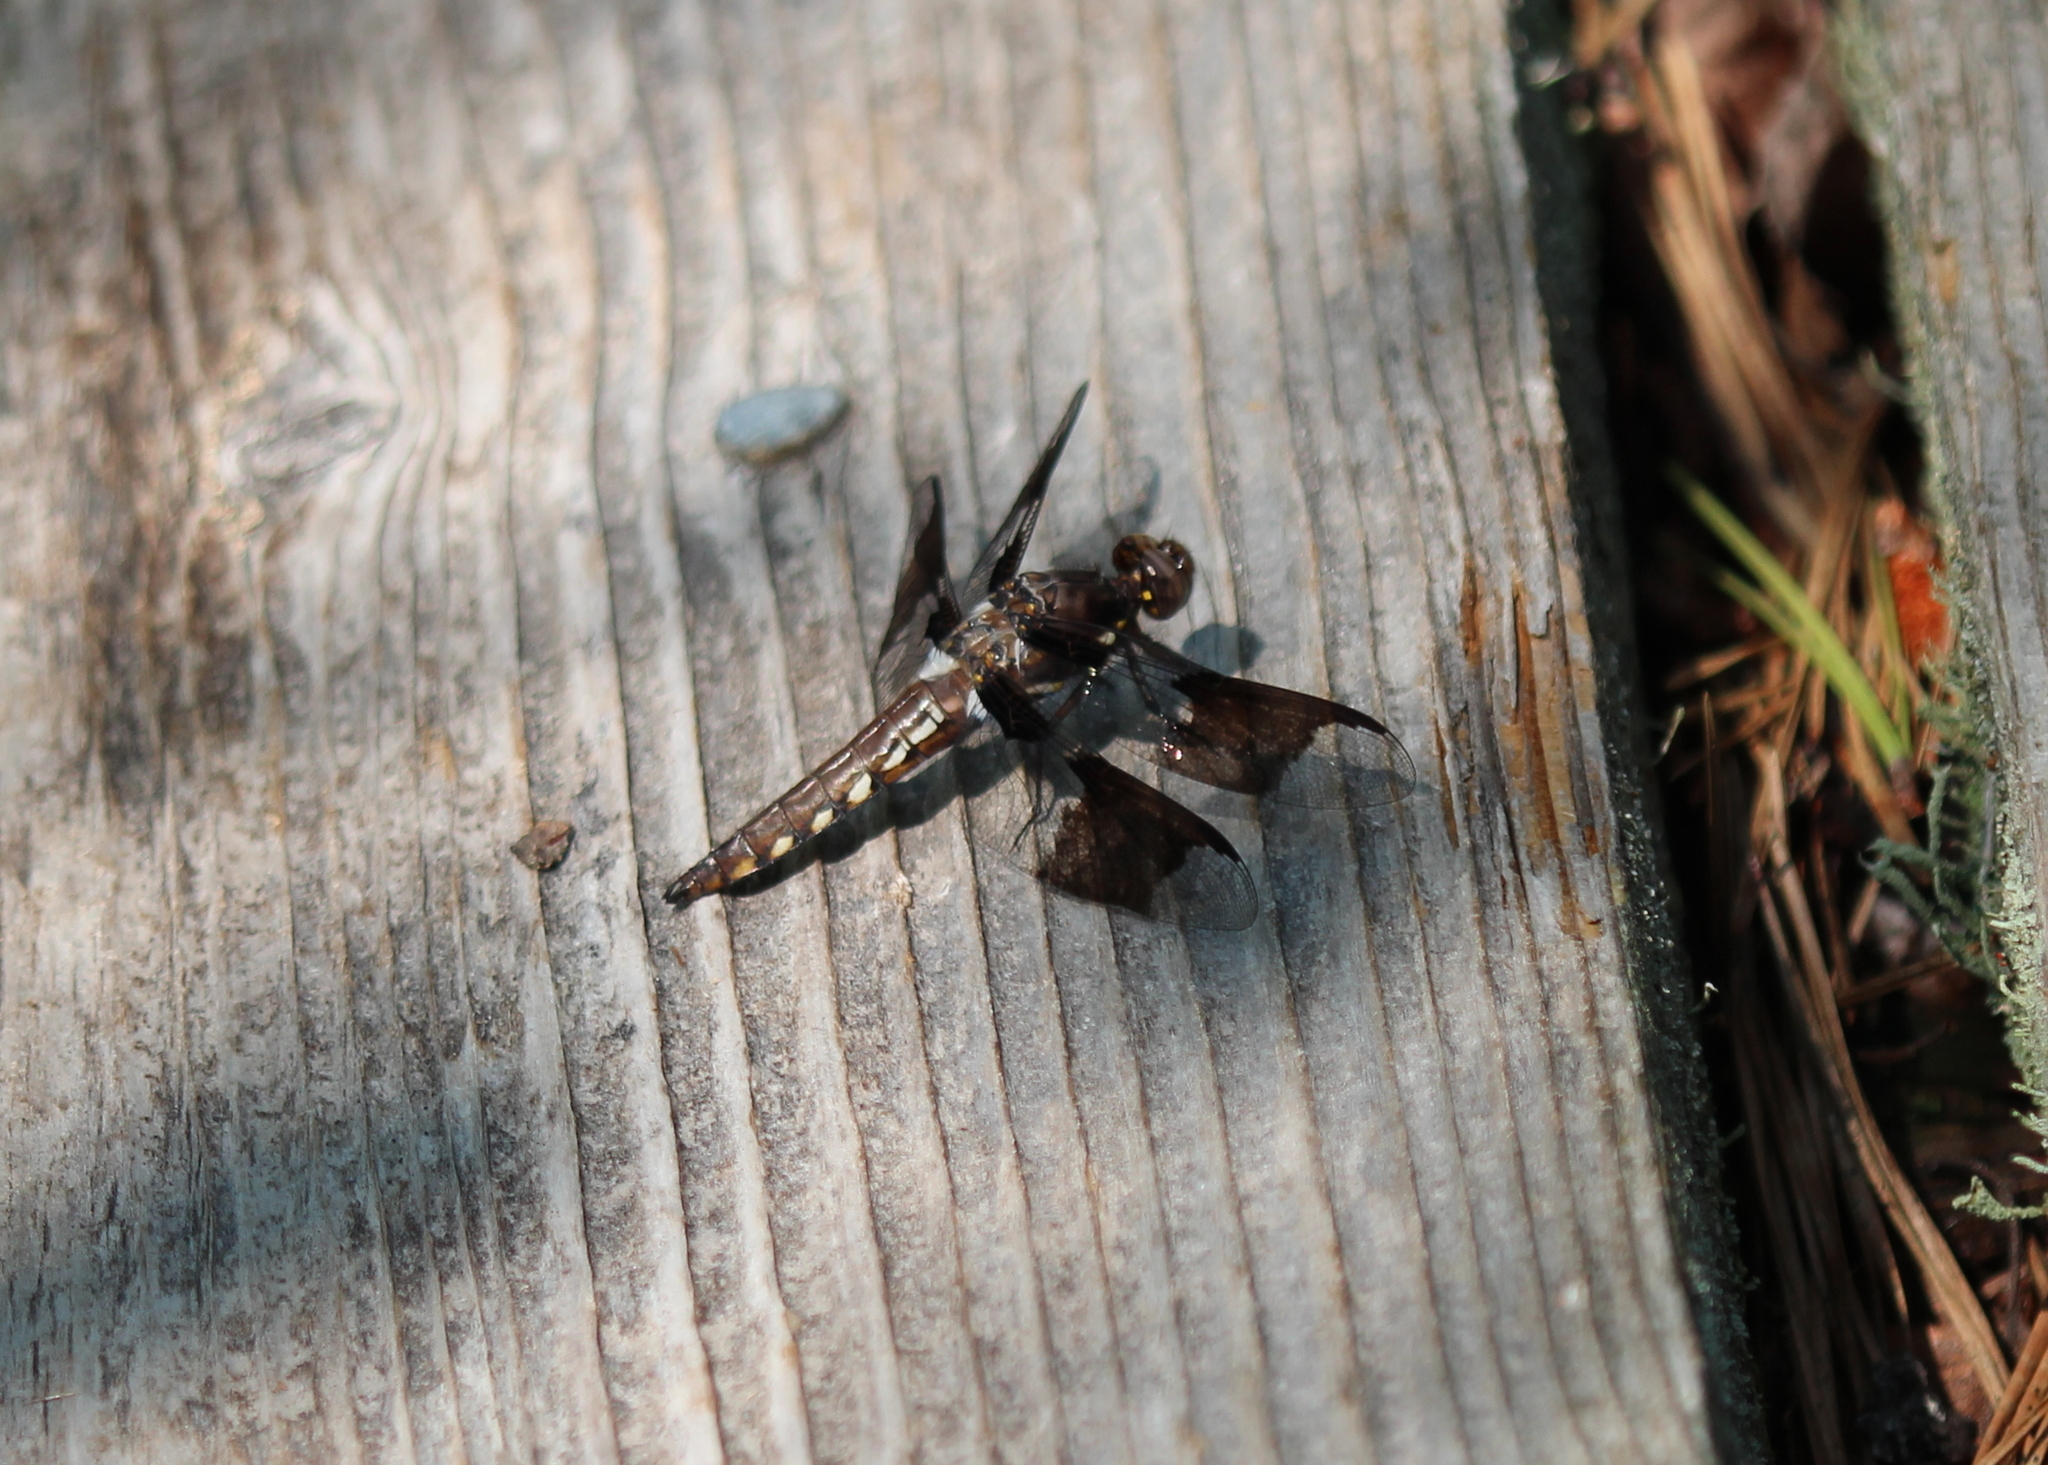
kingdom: Animalia
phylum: Arthropoda
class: Insecta
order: Odonata
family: Libellulidae
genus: Plathemis
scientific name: Plathemis lydia
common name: Common whitetail
